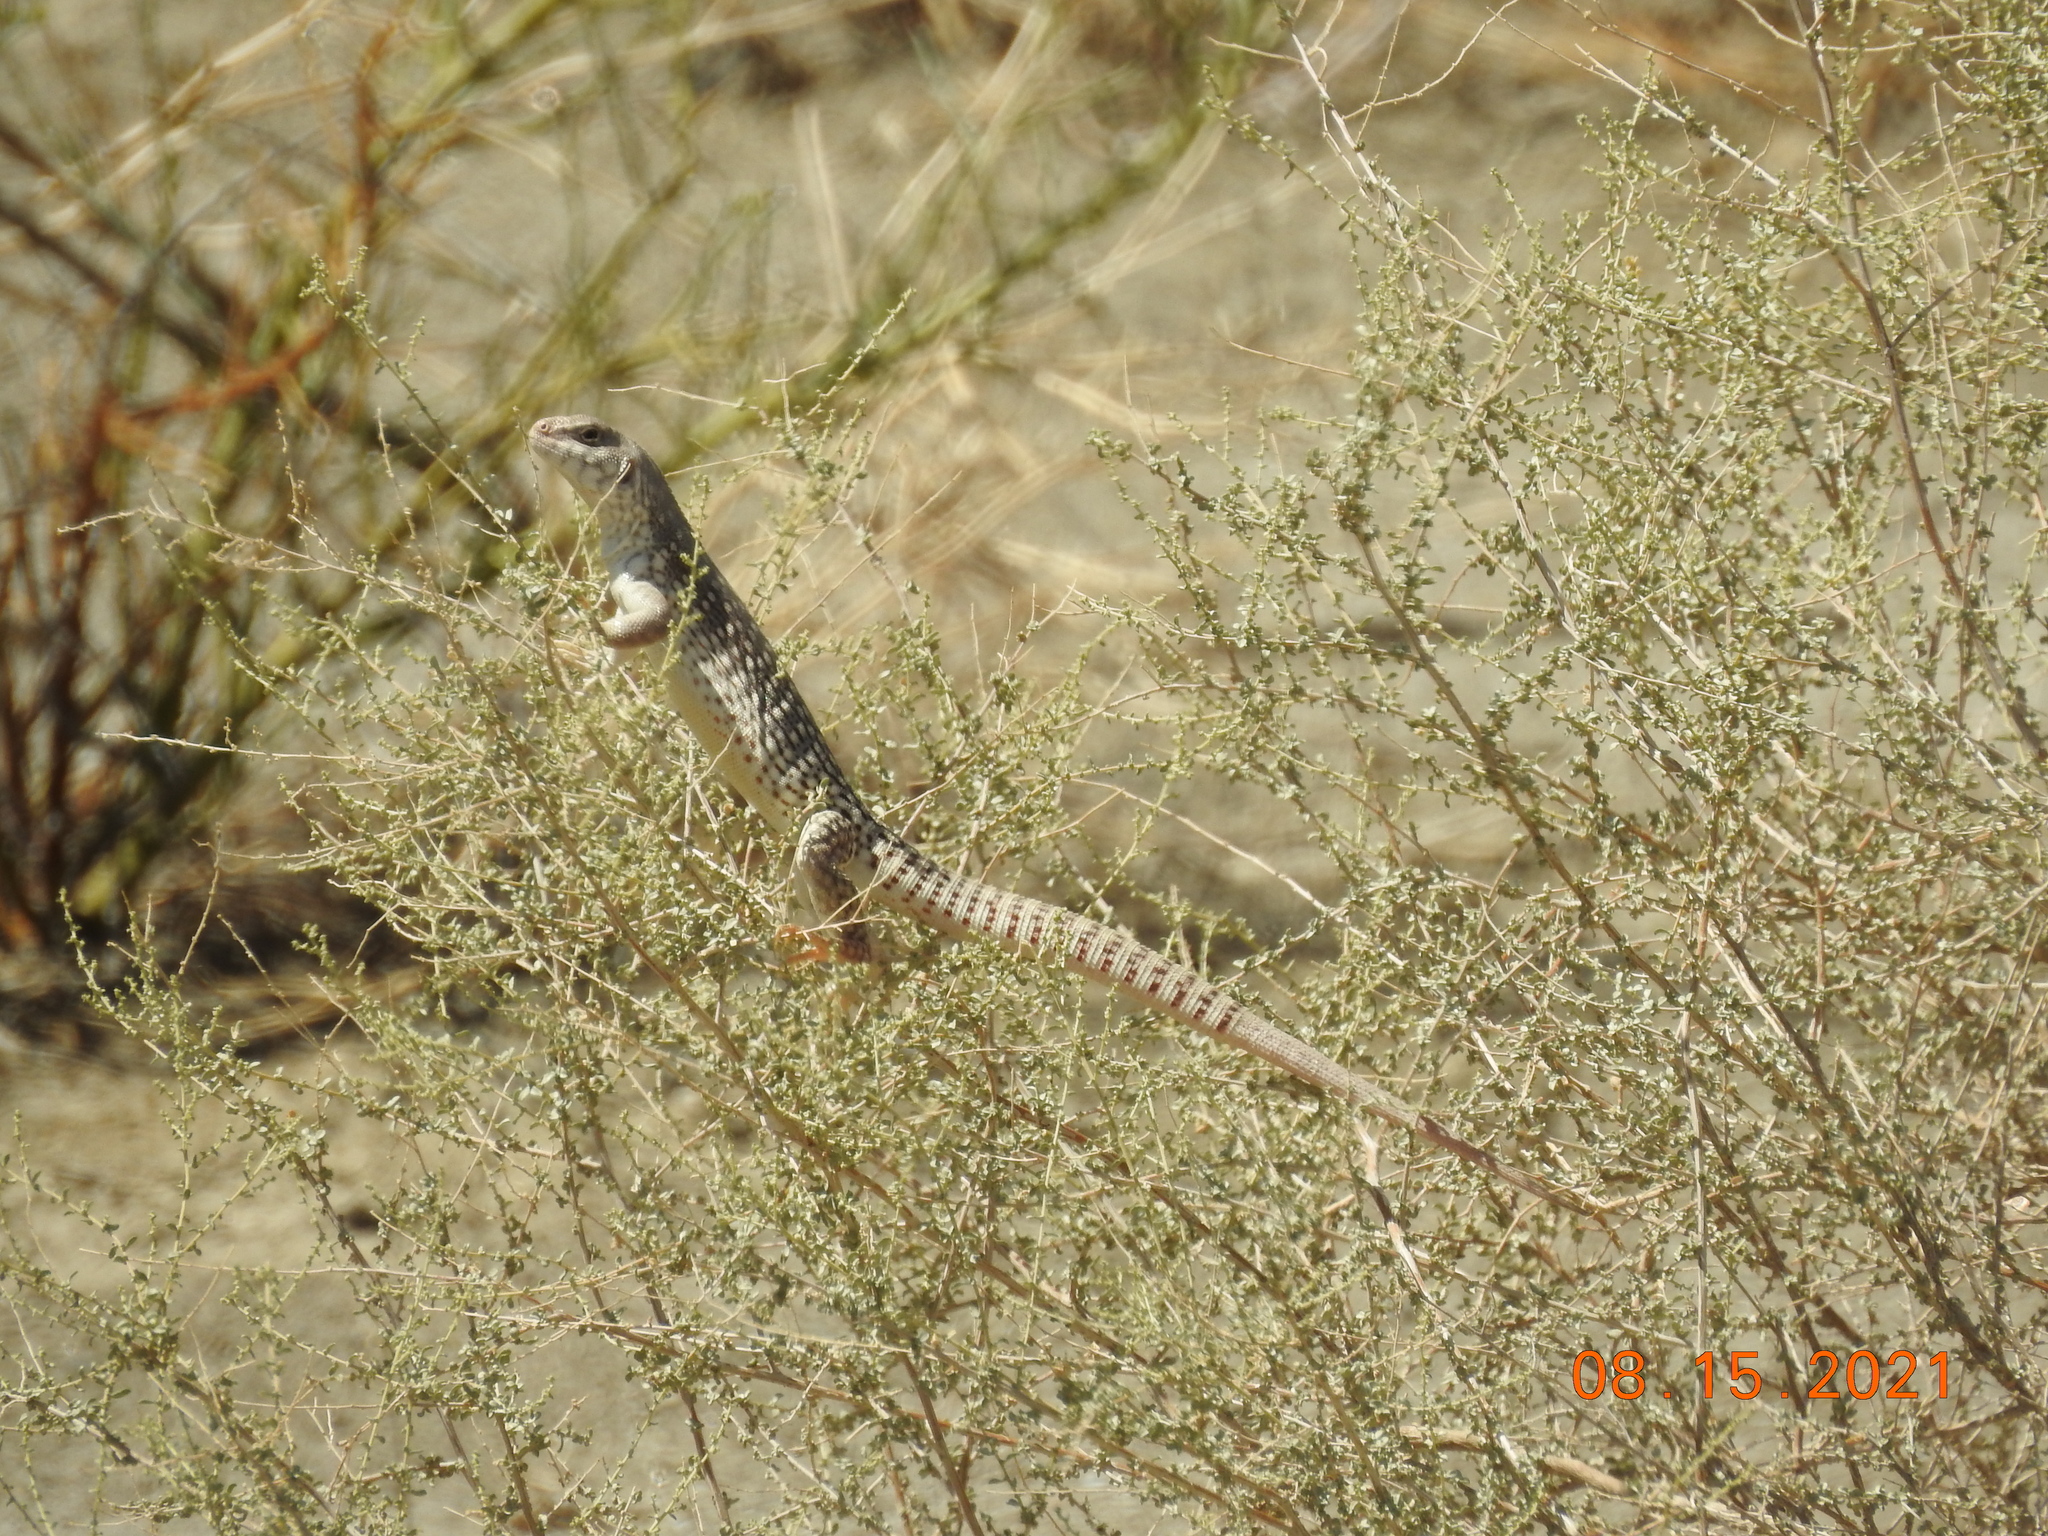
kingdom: Animalia
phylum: Chordata
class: Squamata
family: Iguanidae
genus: Dipsosaurus
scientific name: Dipsosaurus dorsalis
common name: Desert iguana
